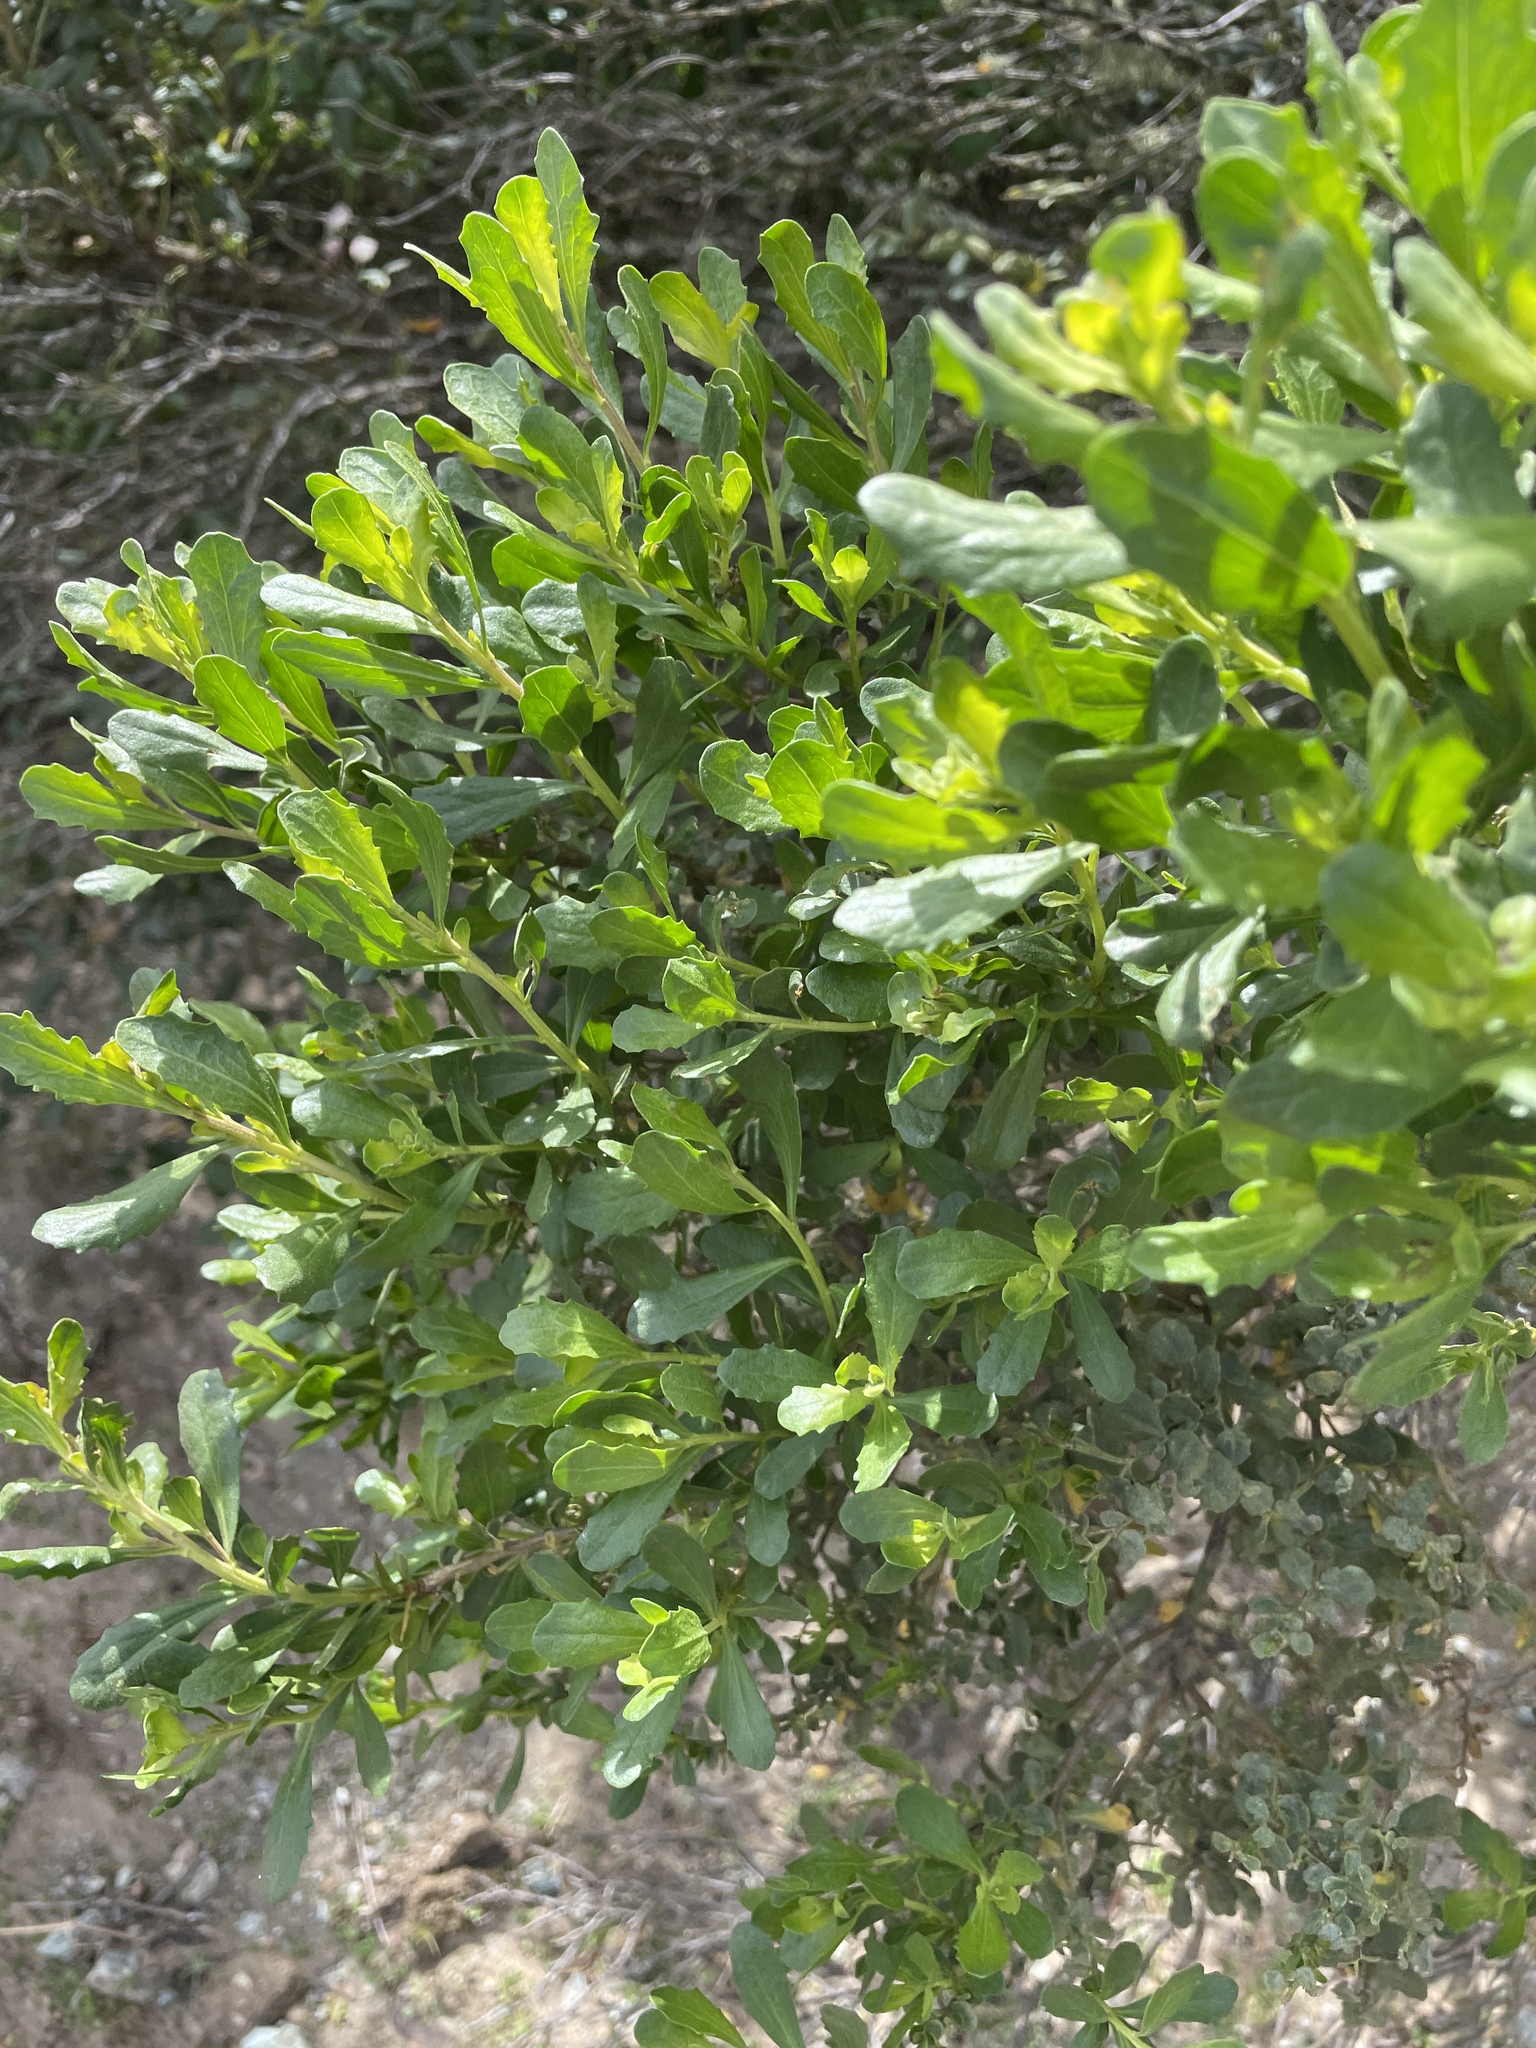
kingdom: Plantae
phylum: Tracheophyta
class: Magnoliopsida
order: Asterales
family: Asteraceae
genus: Baccharis
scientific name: Baccharis pilularis
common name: Coyotebrush
